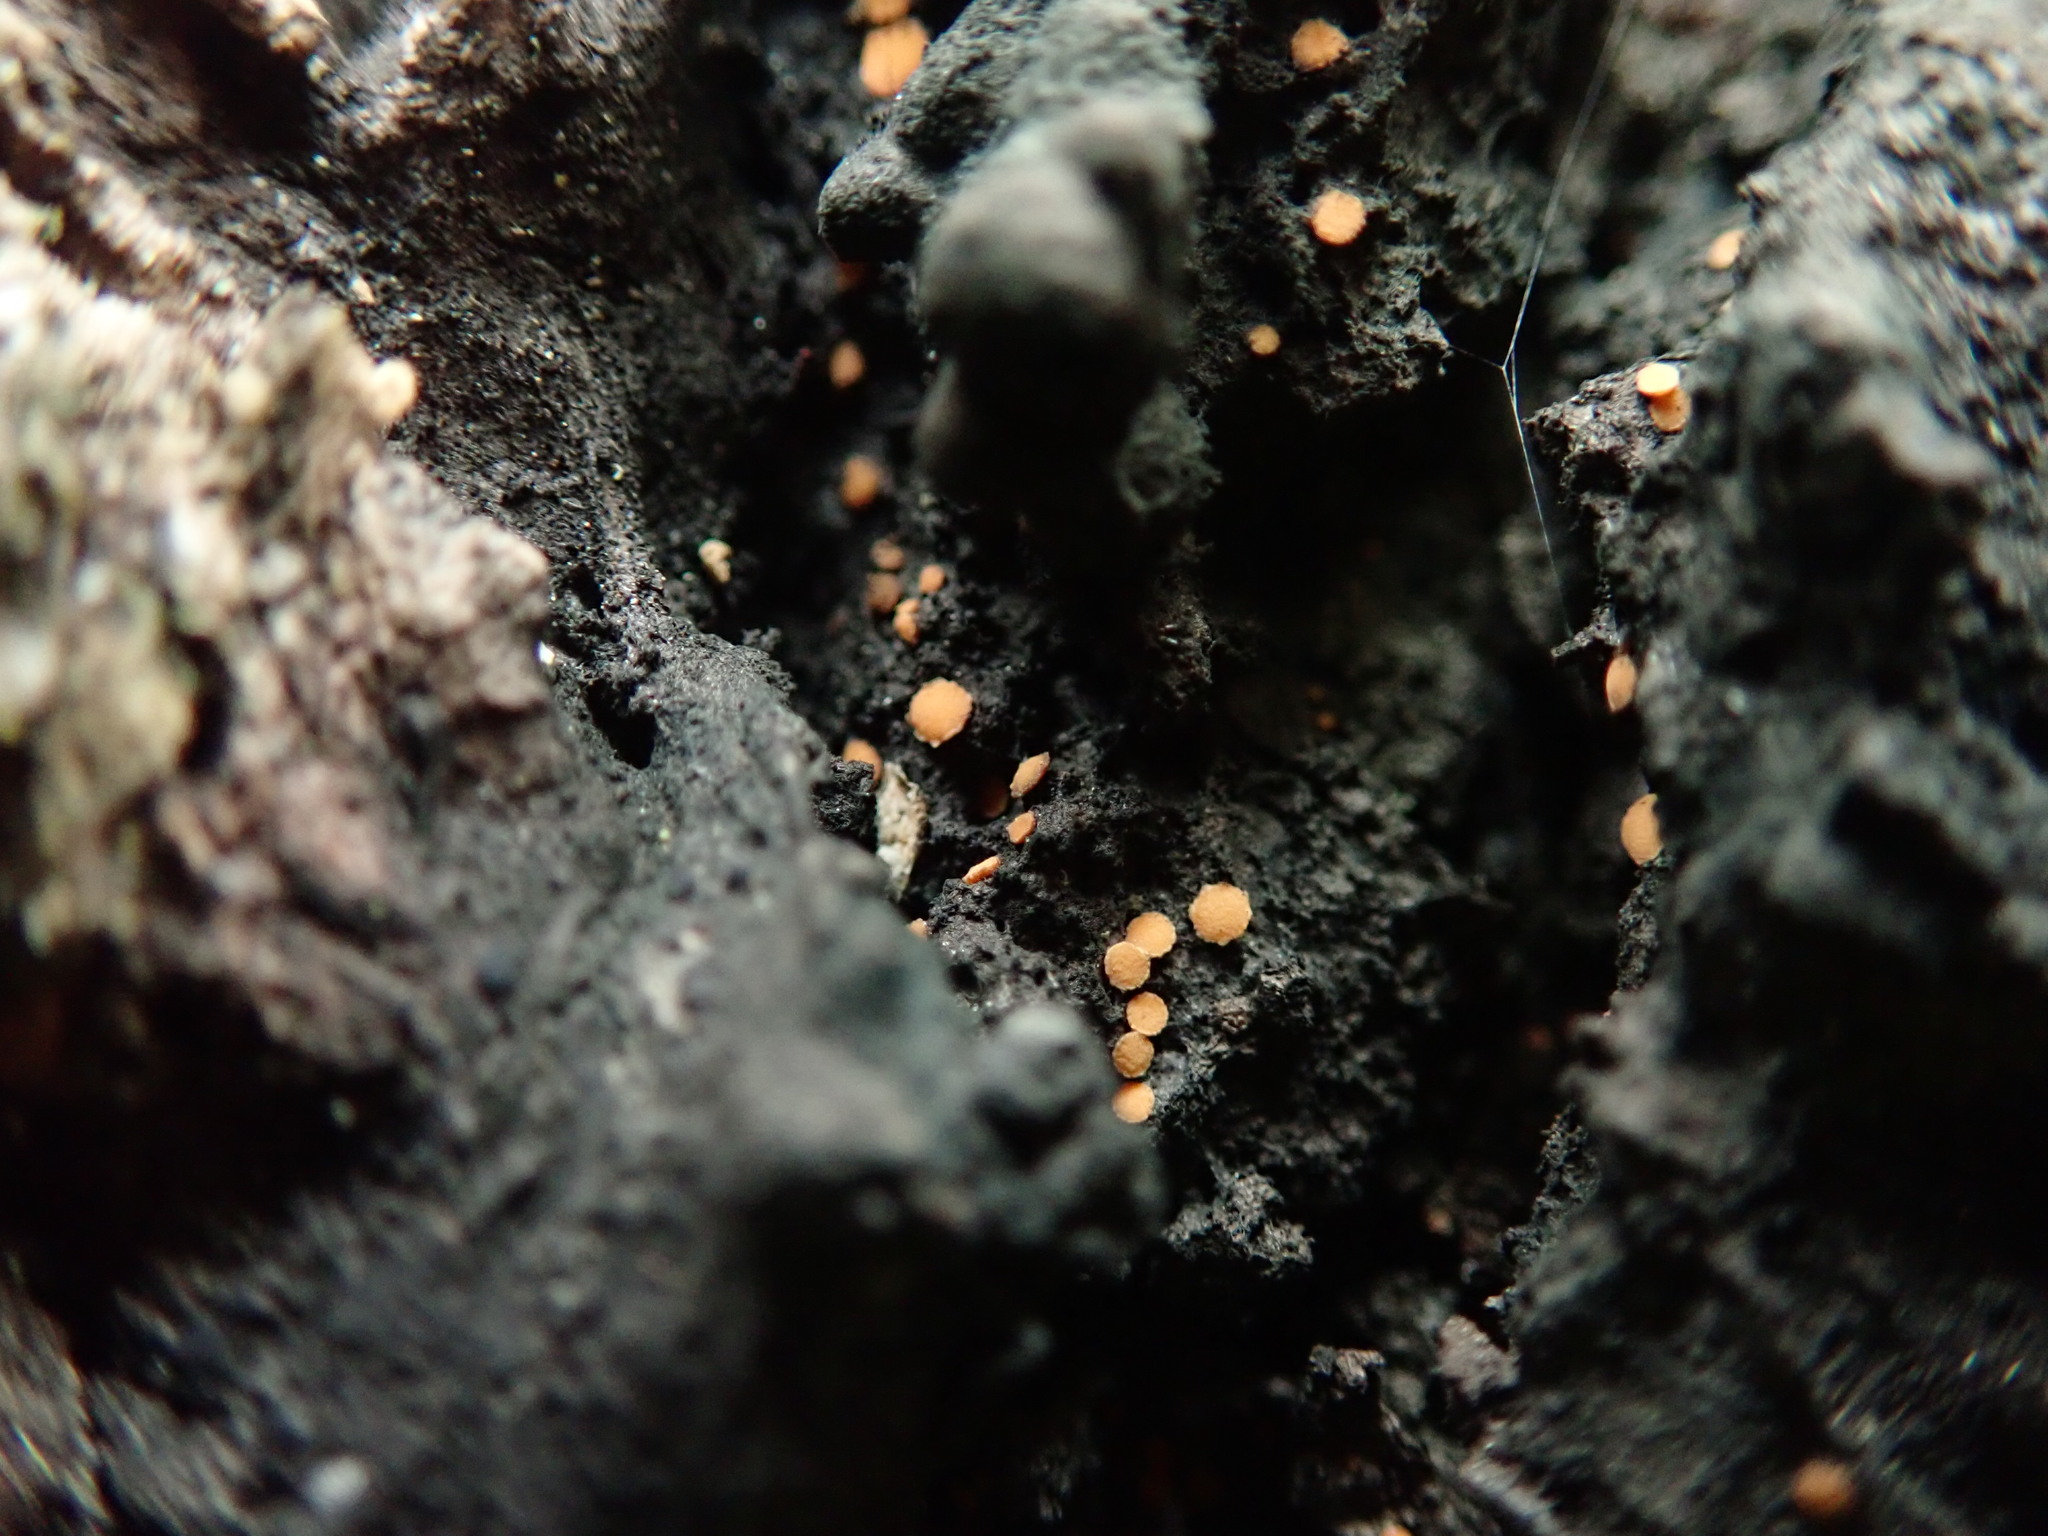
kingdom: Fungi
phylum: Ascomycota
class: Sareomycetes
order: Sareales
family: Sareaceae
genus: Sarea
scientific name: Sarea resinae
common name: Sarea lichen
